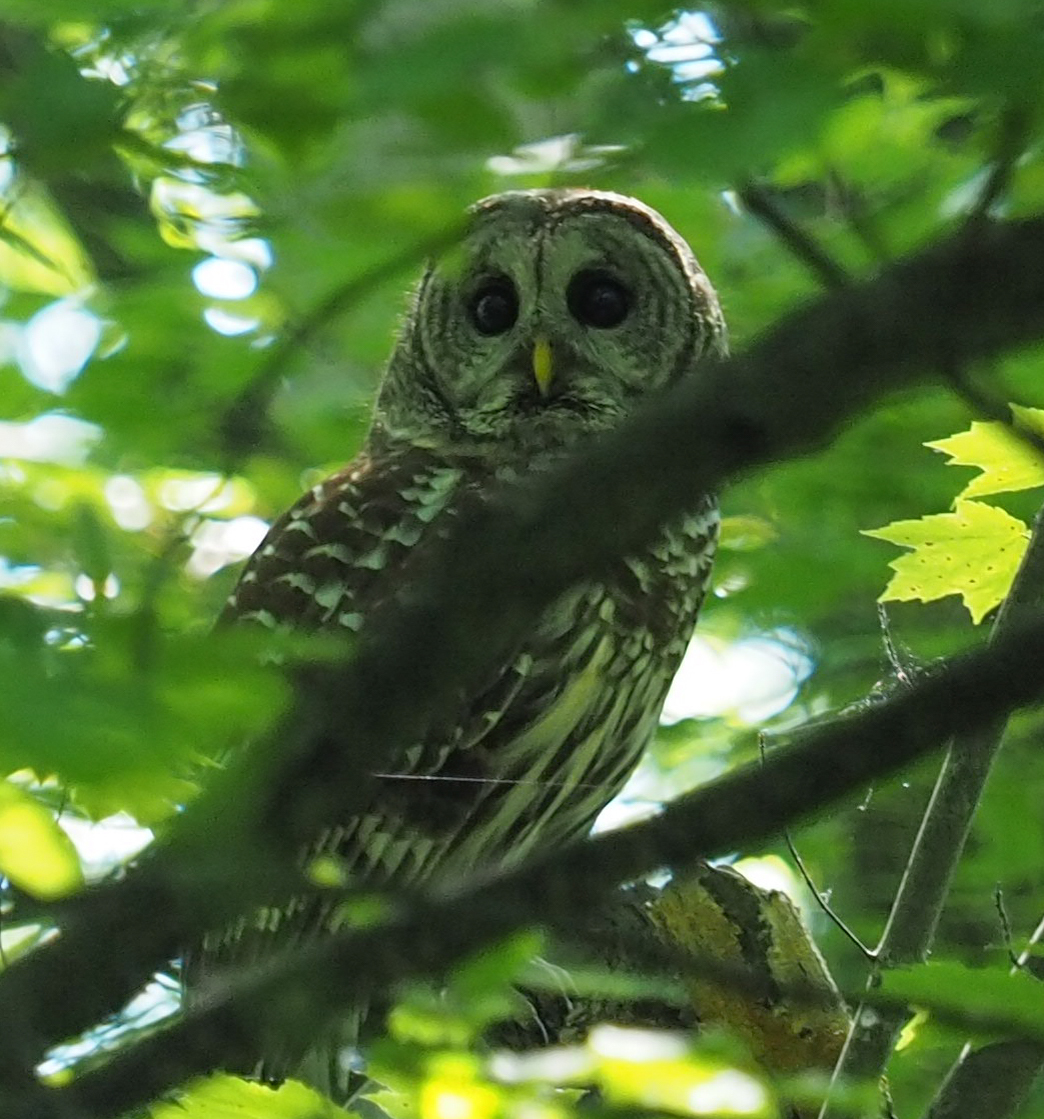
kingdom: Animalia
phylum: Chordata
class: Aves
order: Strigiformes
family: Strigidae
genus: Strix
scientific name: Strix varia
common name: Barred owl
